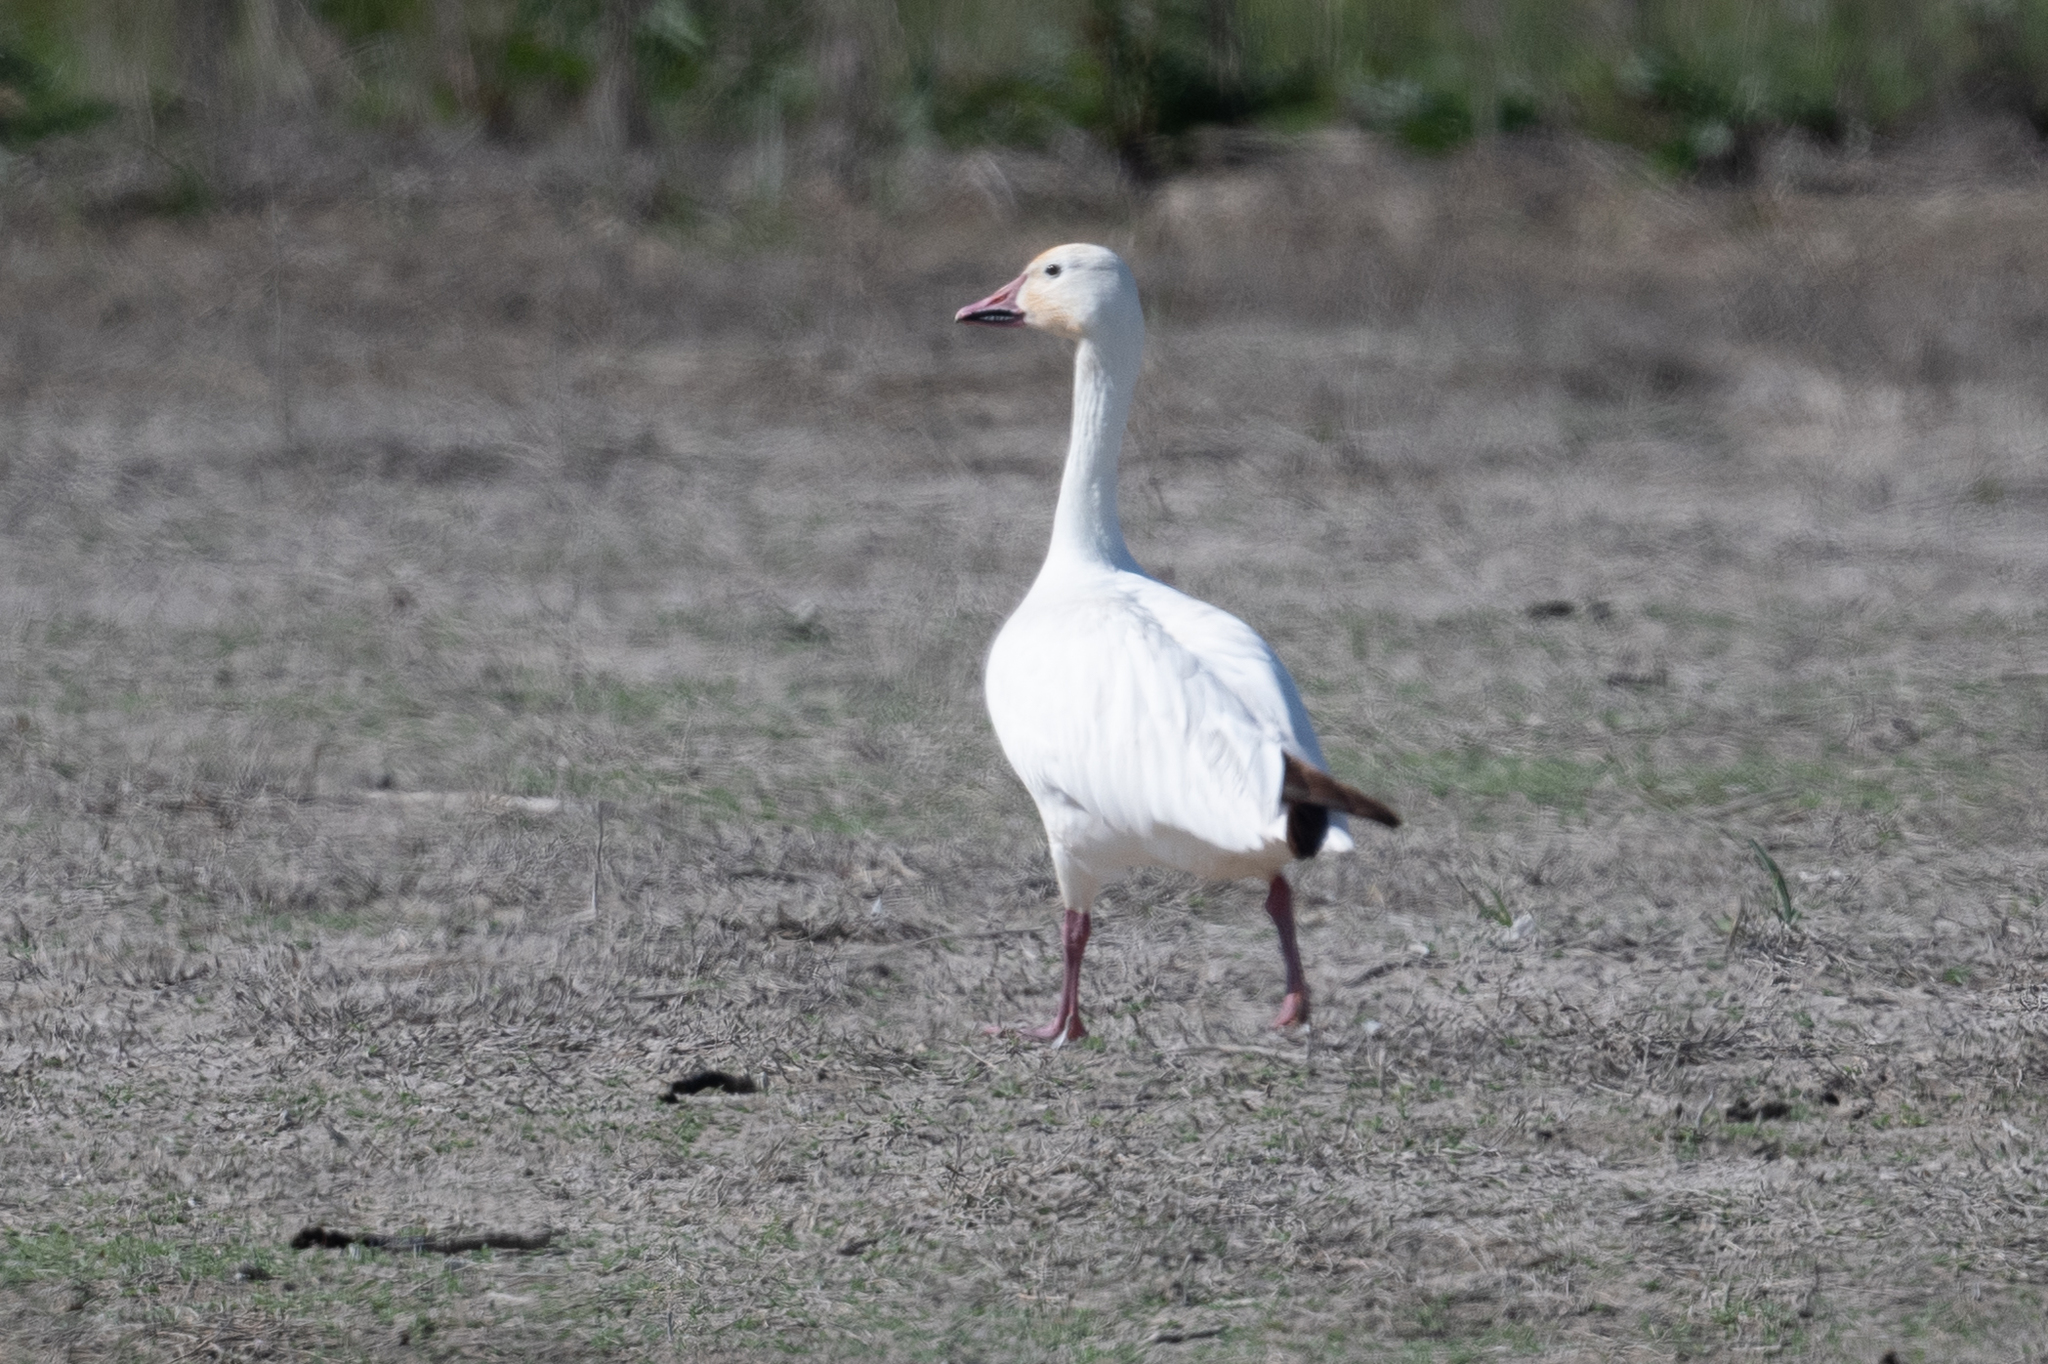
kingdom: Animalia
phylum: Chordata
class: Aves
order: Anseriformes
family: Anatidae
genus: Anser
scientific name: Anser caerulescens
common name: Snow goose
